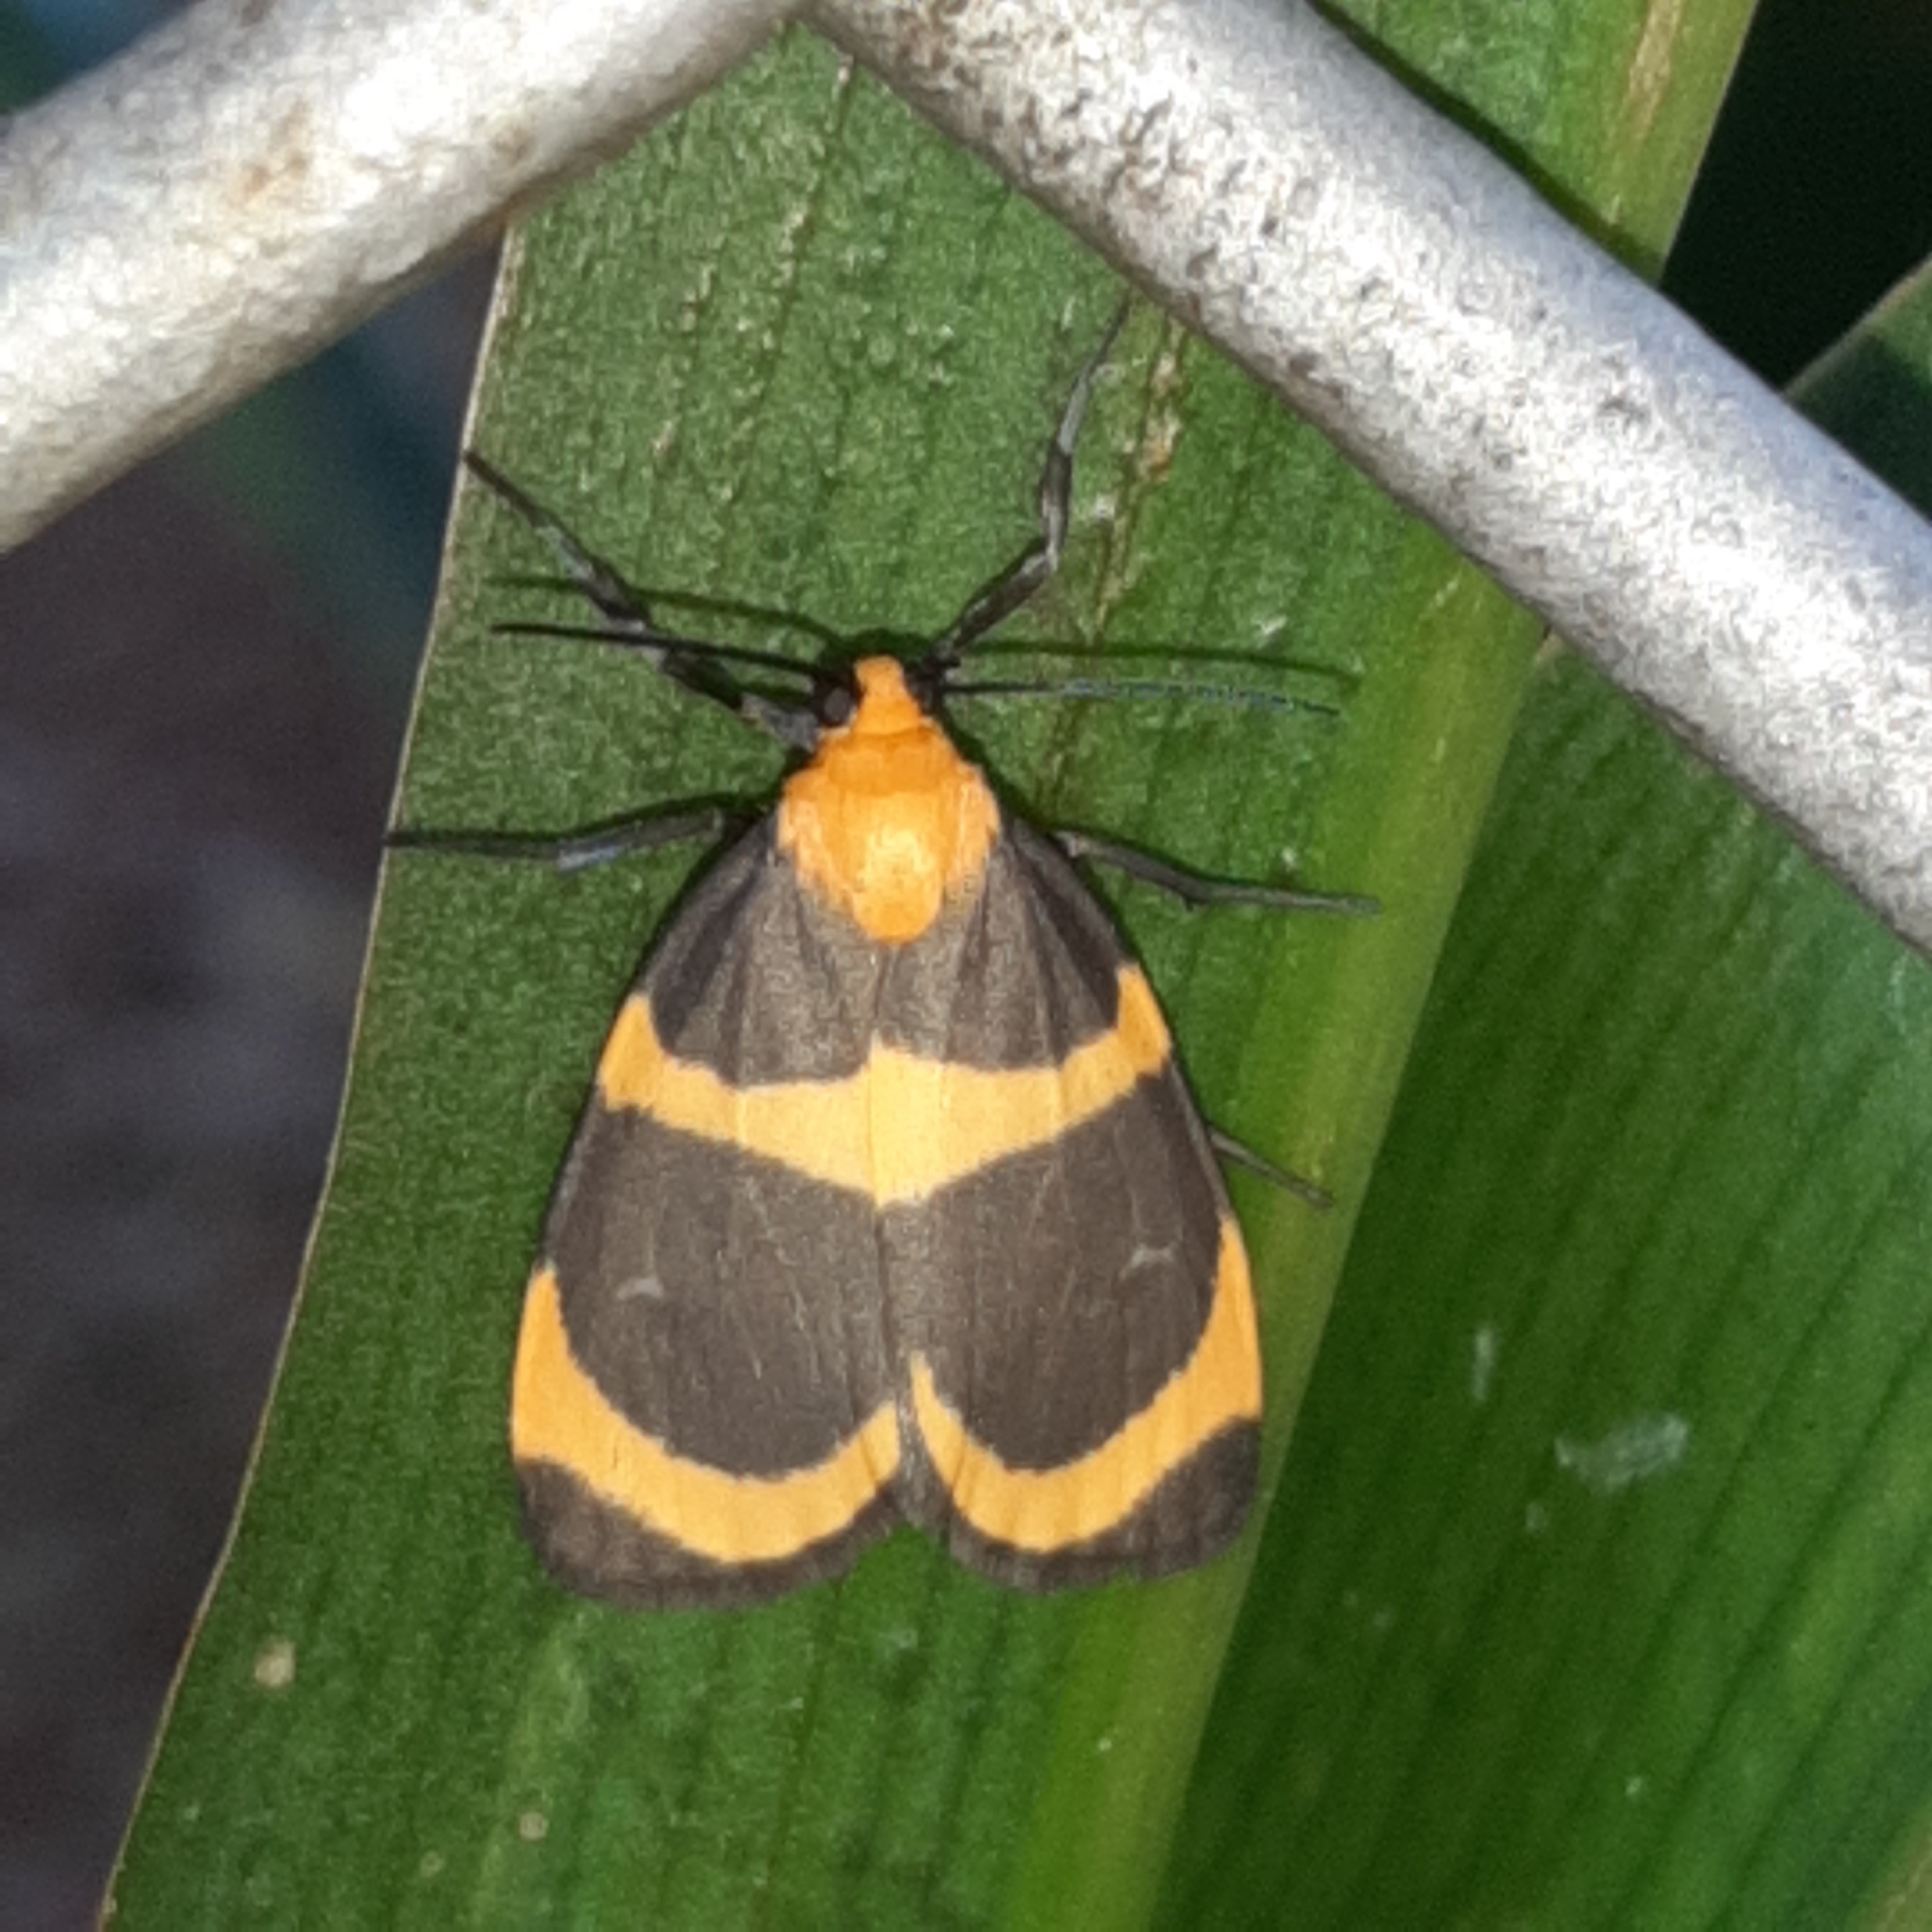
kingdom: Animalia
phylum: Arthropoda
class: Insecta
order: Lepidoptera
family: Erebidae
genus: Eudesmia
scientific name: Eudesmia menea
